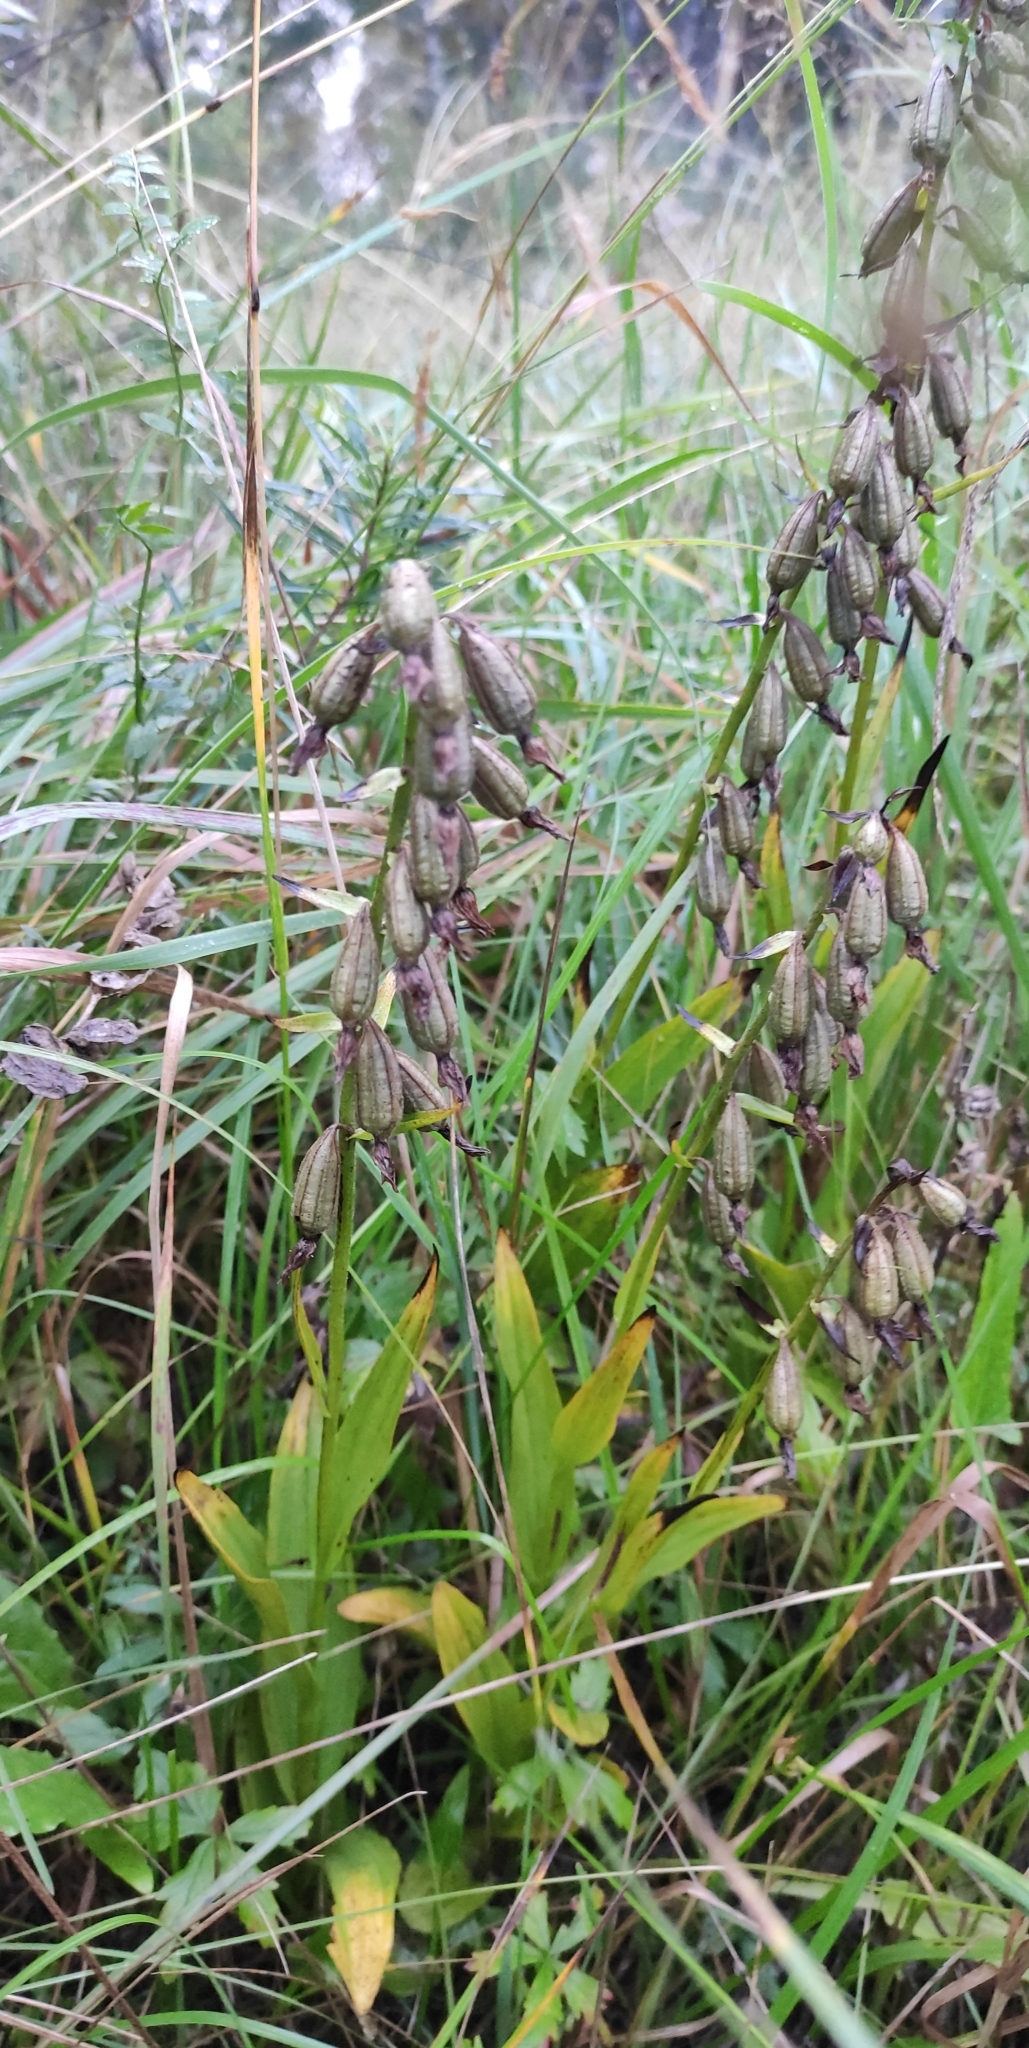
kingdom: Plantae
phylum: Tracheophyta
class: Liliopsida
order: Asparagales
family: Orchidaceae
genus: Epipactis
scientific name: Epipactis palustris
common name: Marsh helleborine
